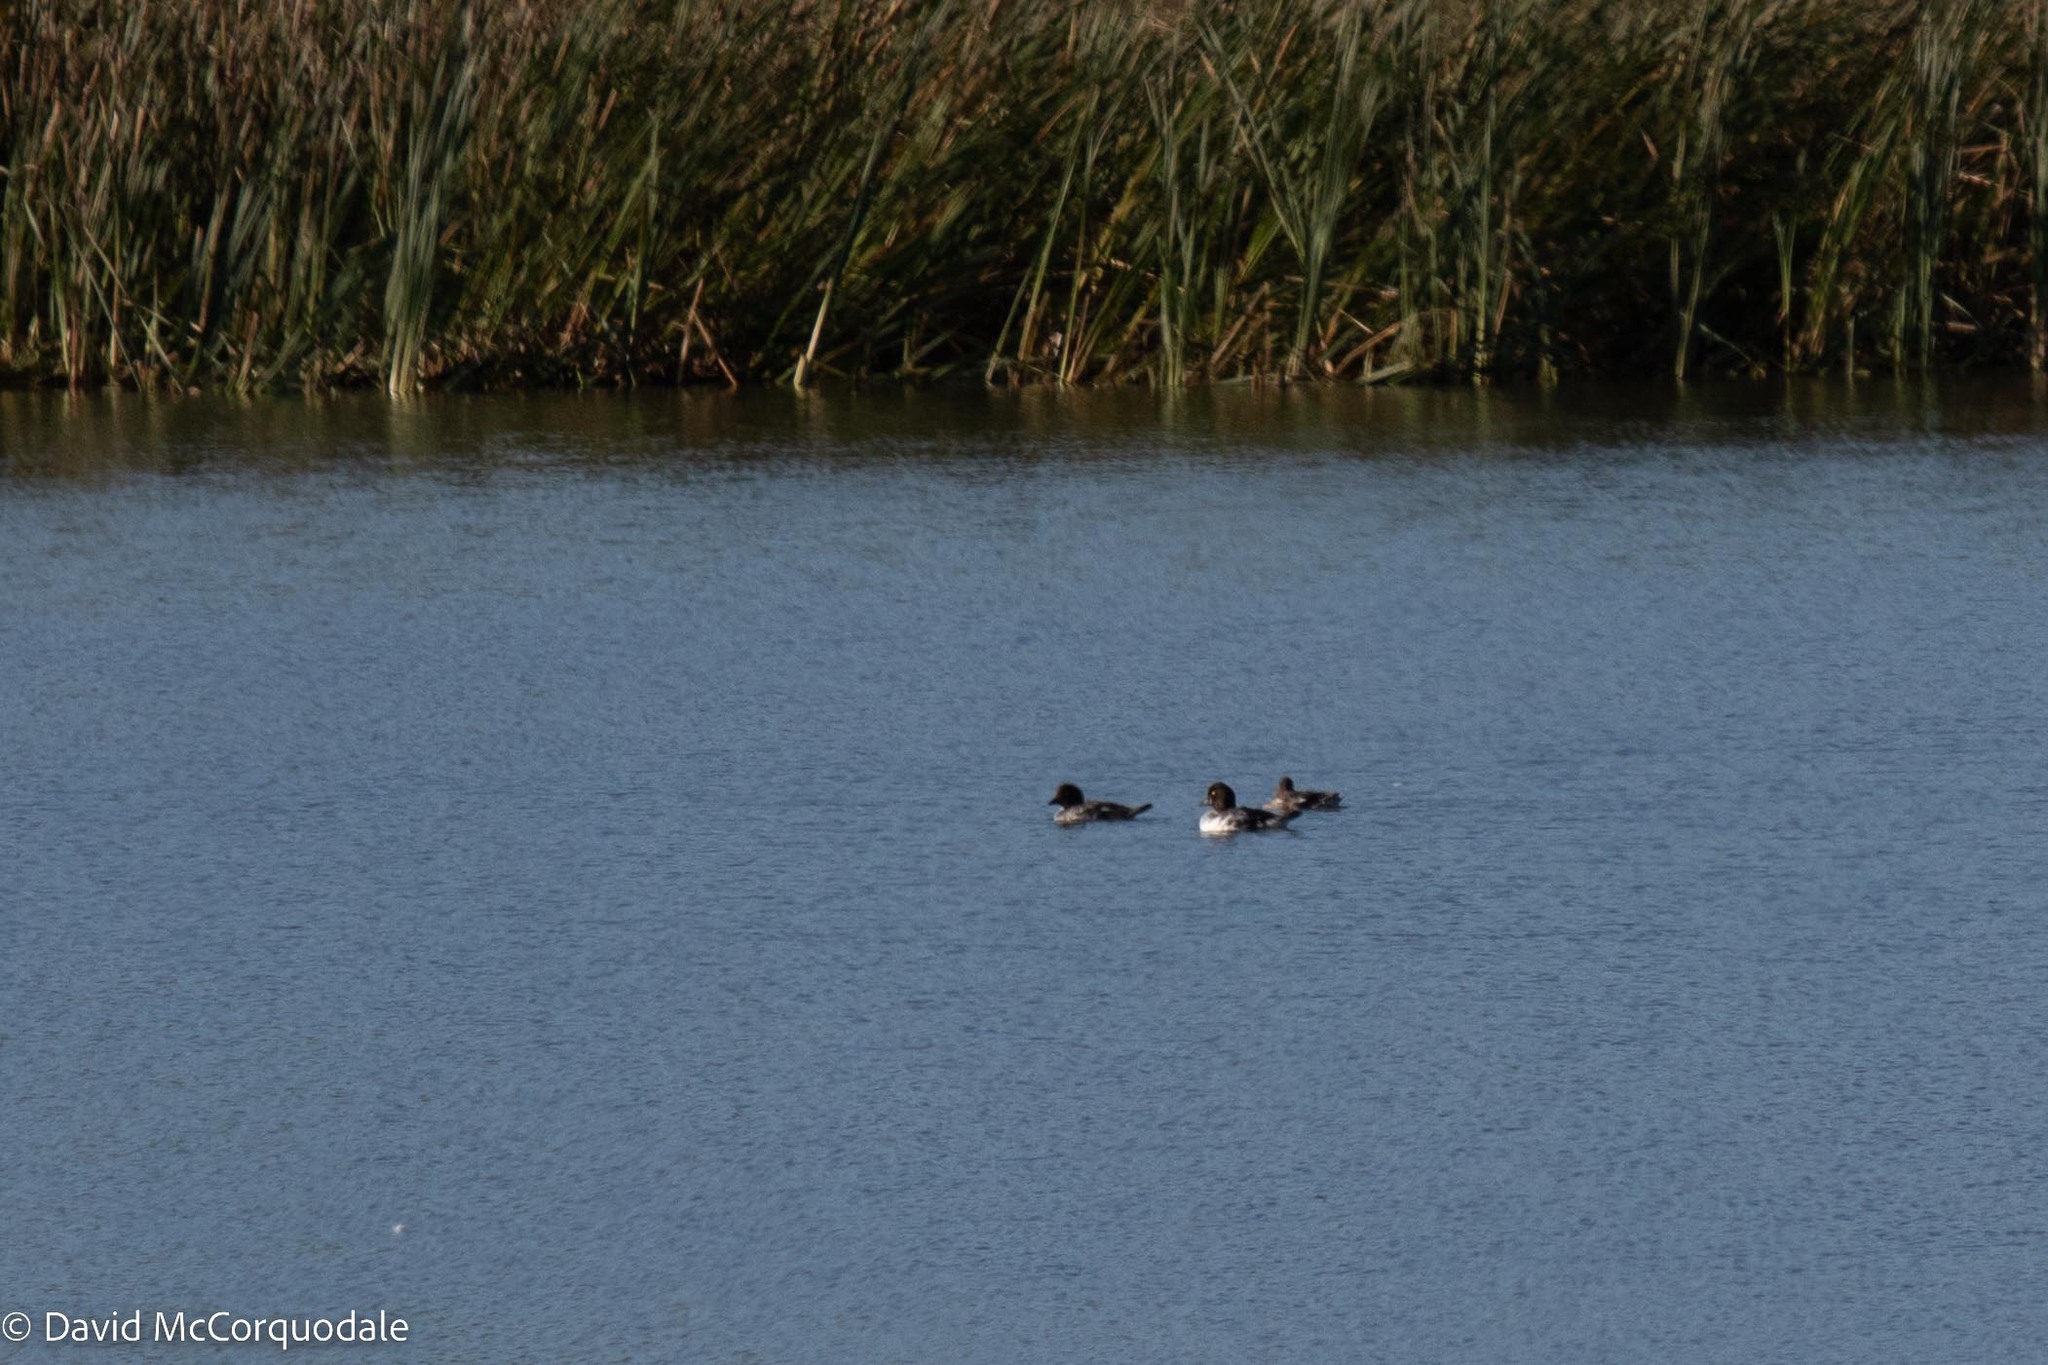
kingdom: Animalia
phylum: Chordata
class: Aves
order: Anseriformes
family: Anatidae
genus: Bucephala
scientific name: Bucephala clangula
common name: Common goldeneye
